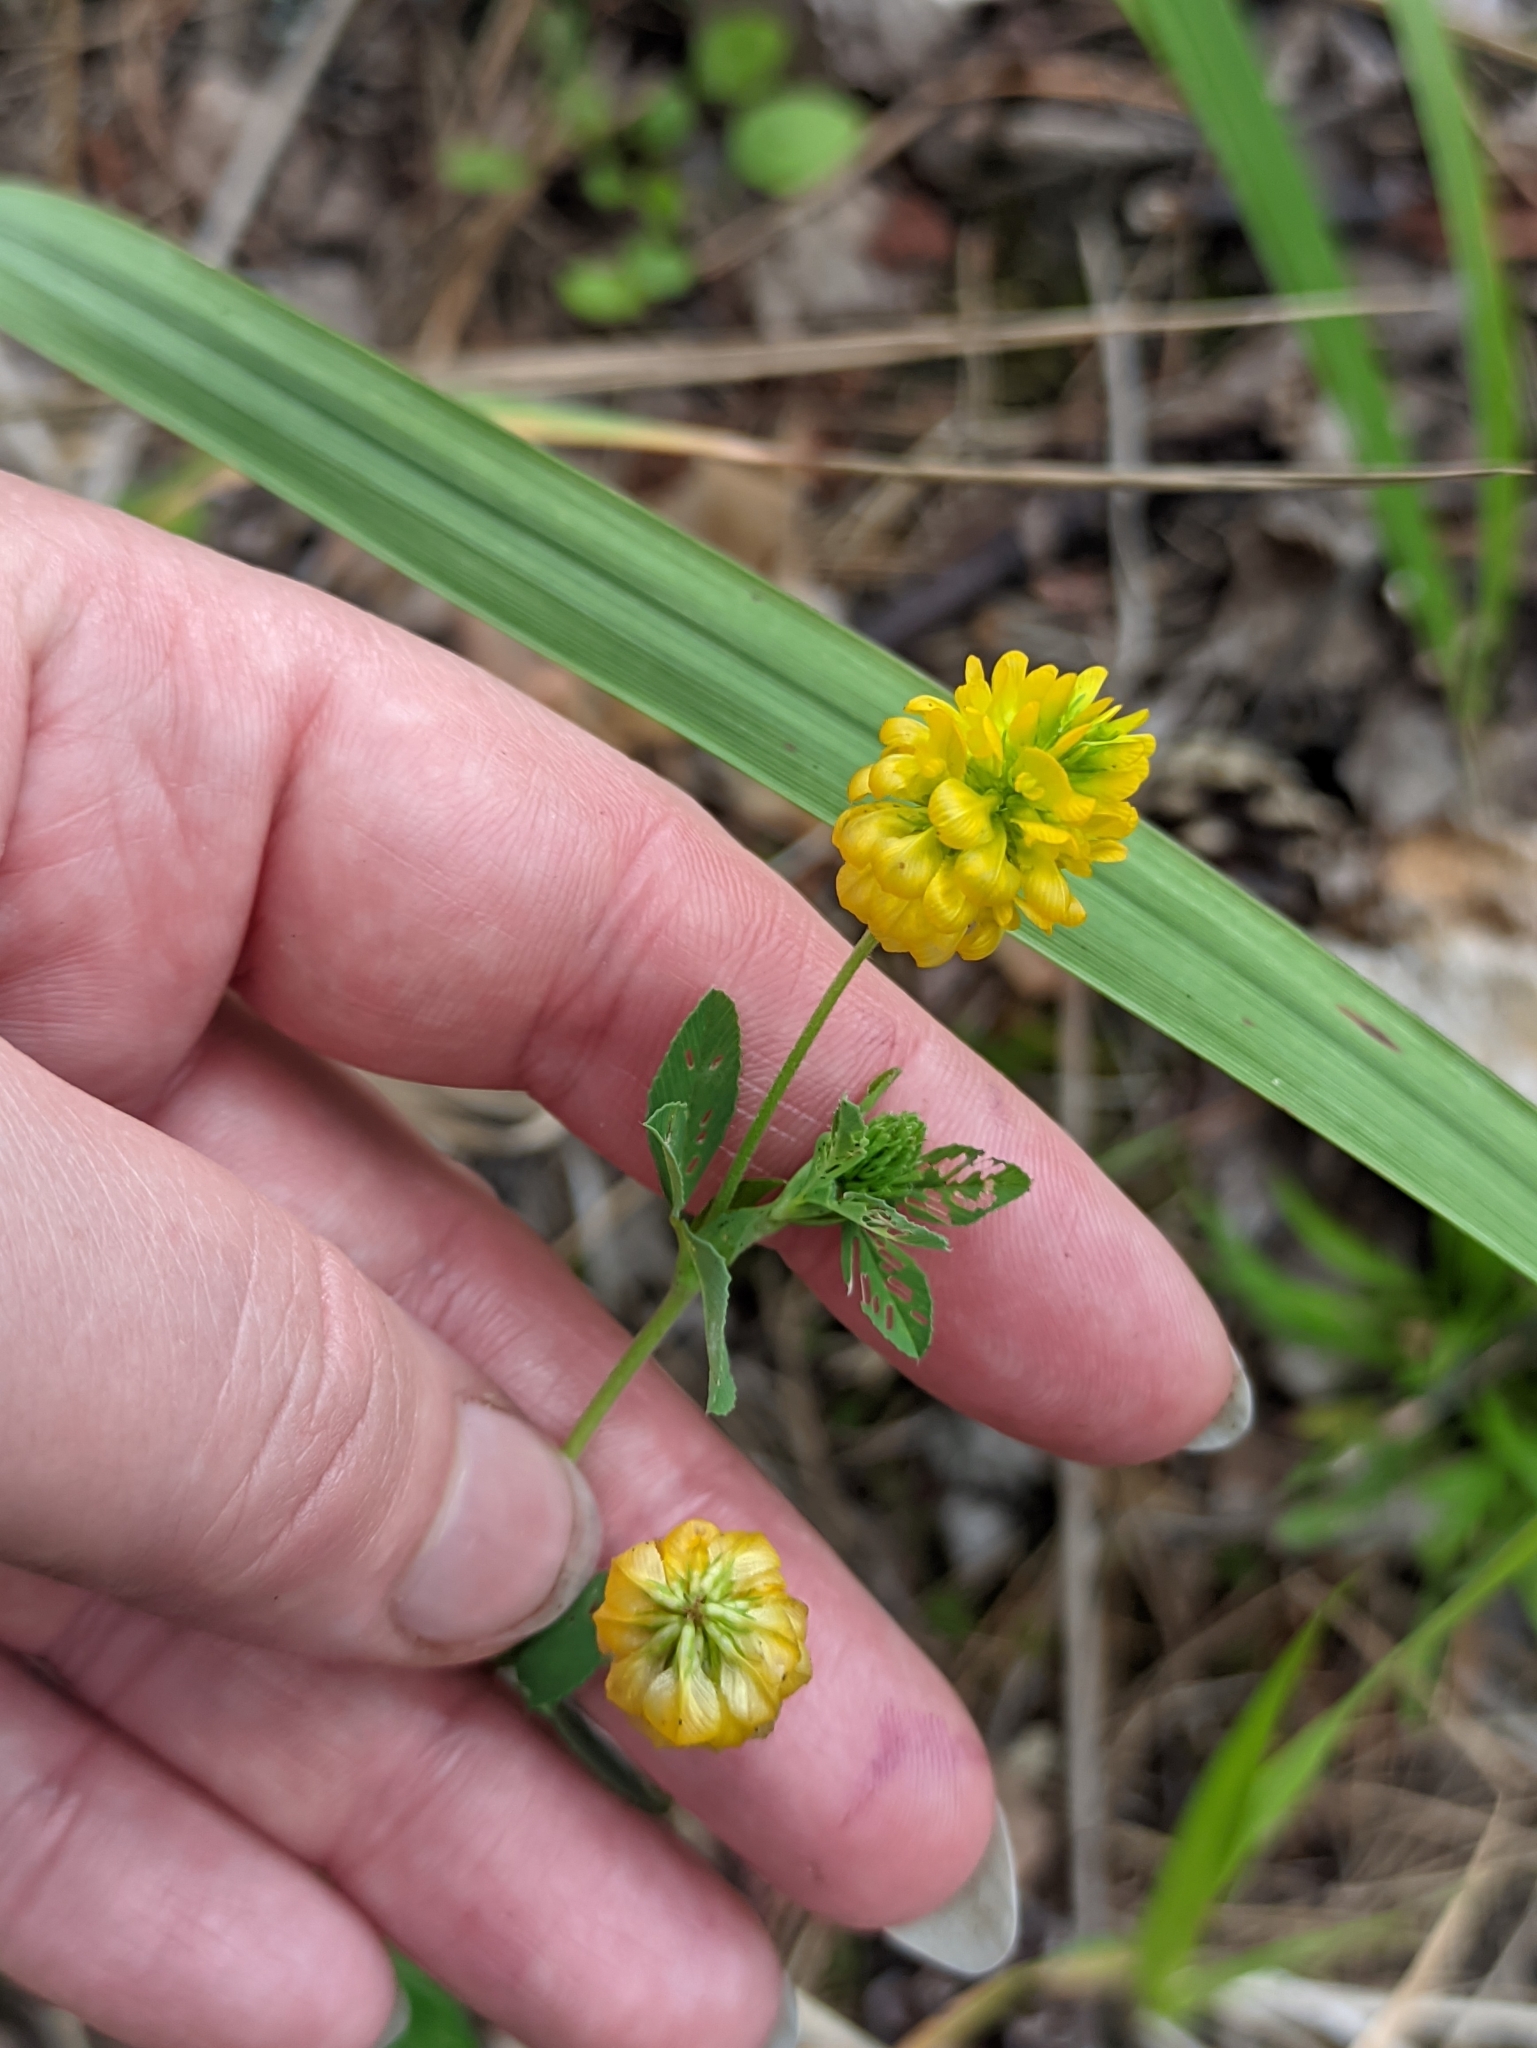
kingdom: Plantae
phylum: Tracheophyta
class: Magnoliopsida
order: Fabales
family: Fabaceae
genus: Trifolium
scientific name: Trifolium aureum
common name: Golden clover
